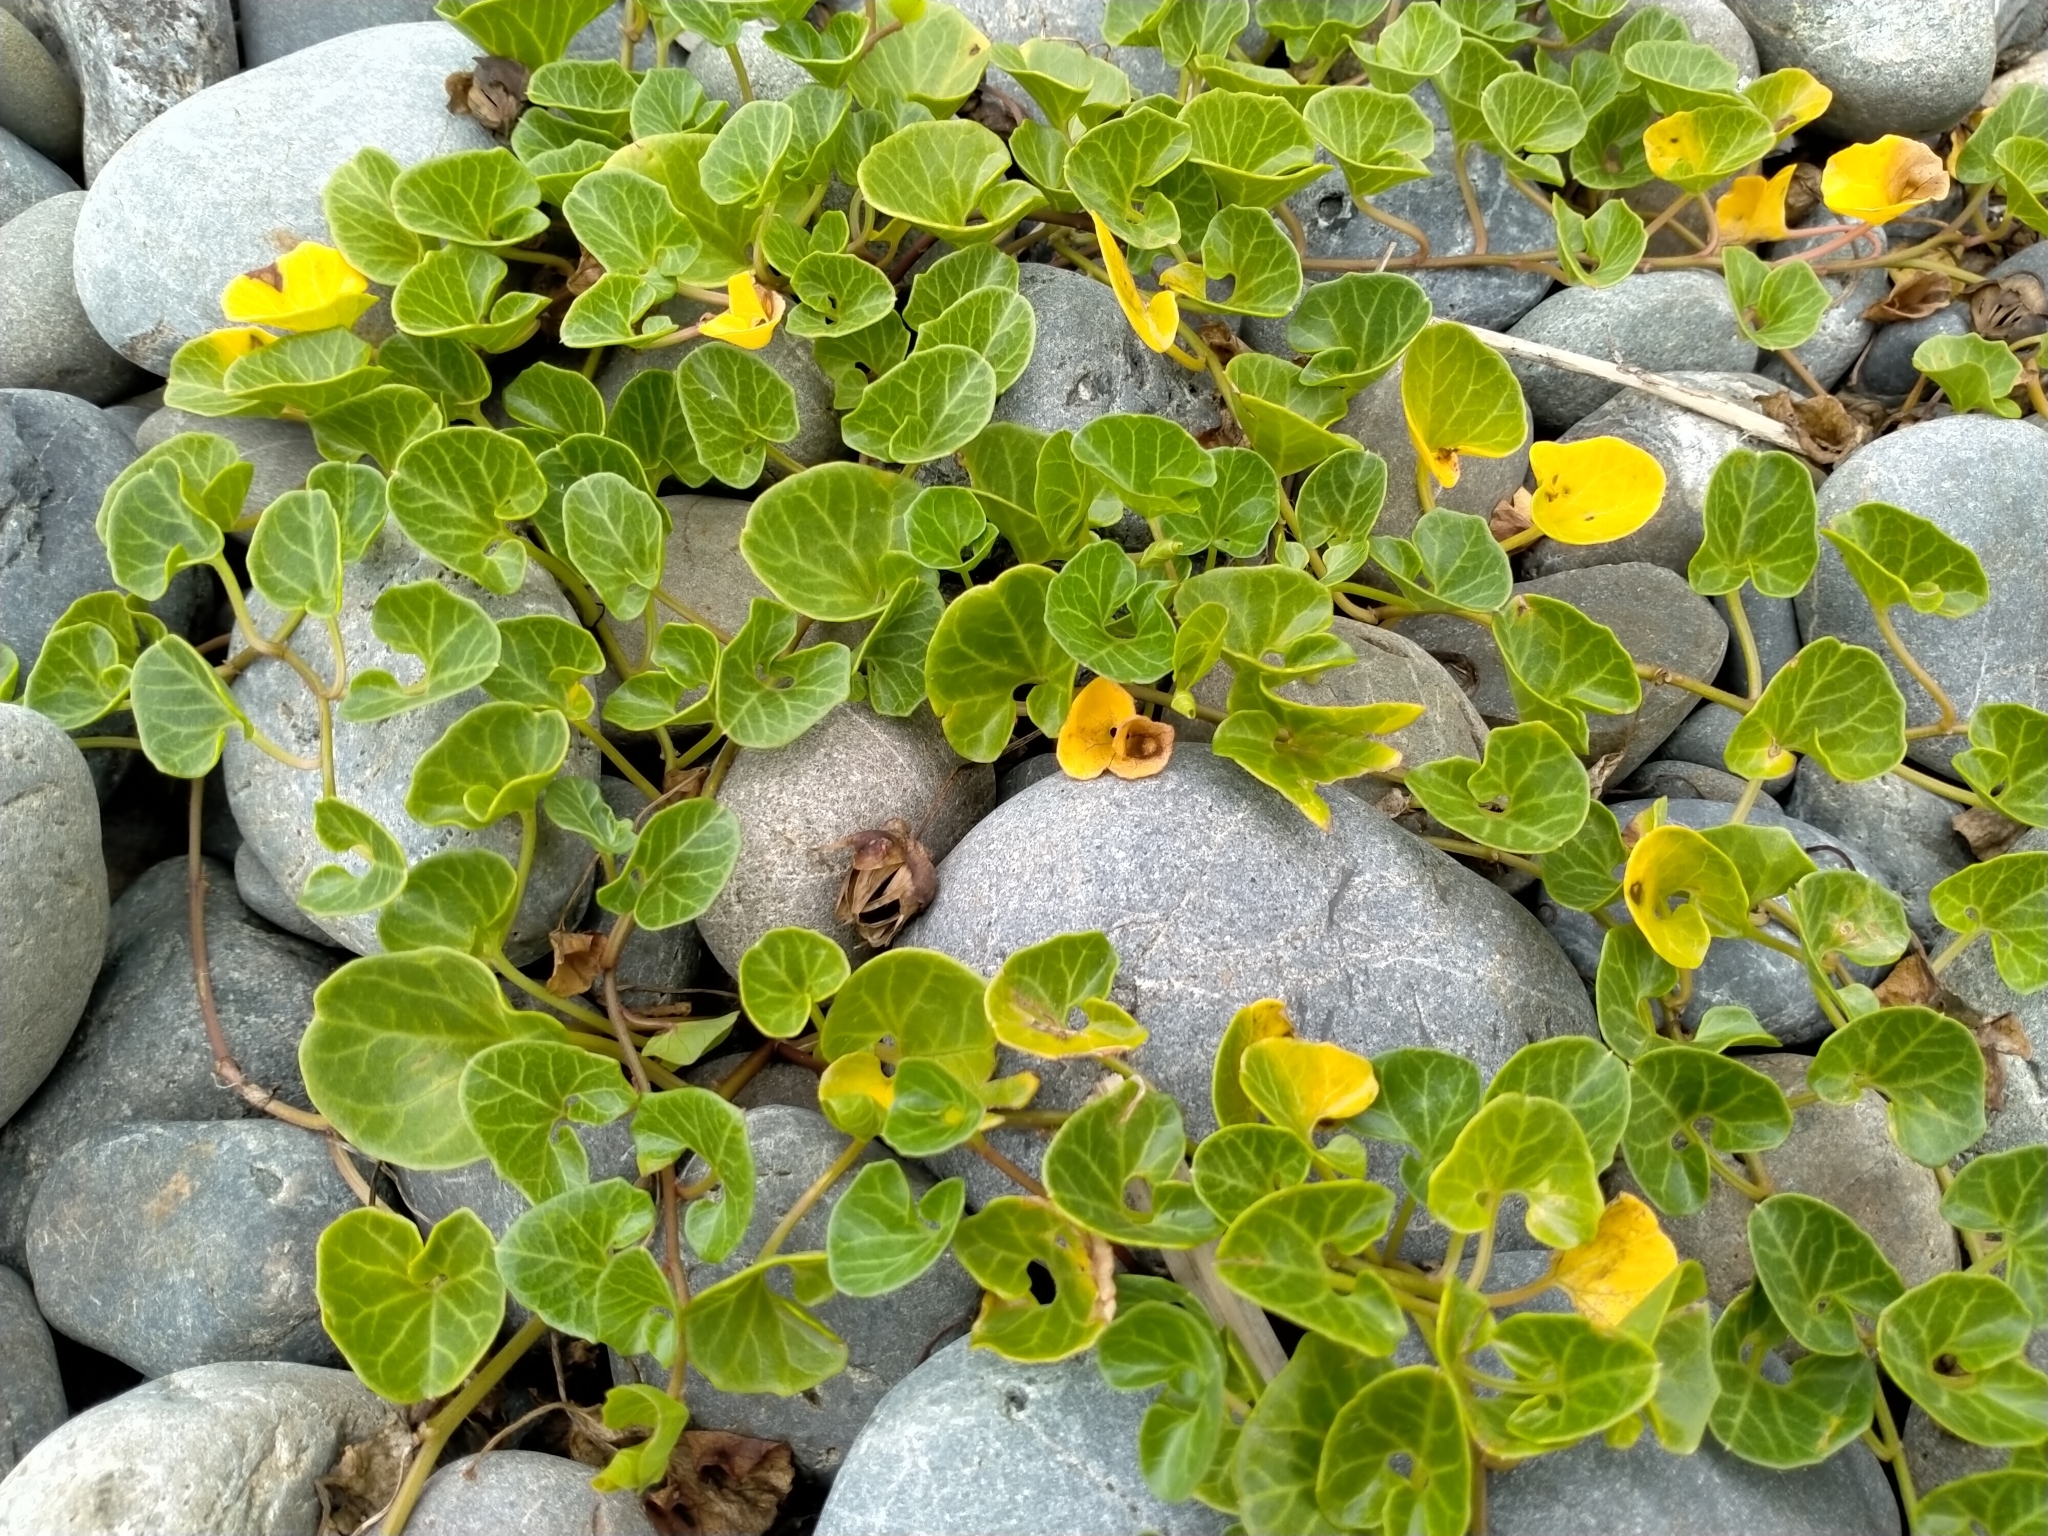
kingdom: Plantae
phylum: Tracheophyta
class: Magnoliopsida
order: Solanales
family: Convolvulaceae
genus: Calystegia
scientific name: Calystegia soldanella
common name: Sea bindweed
